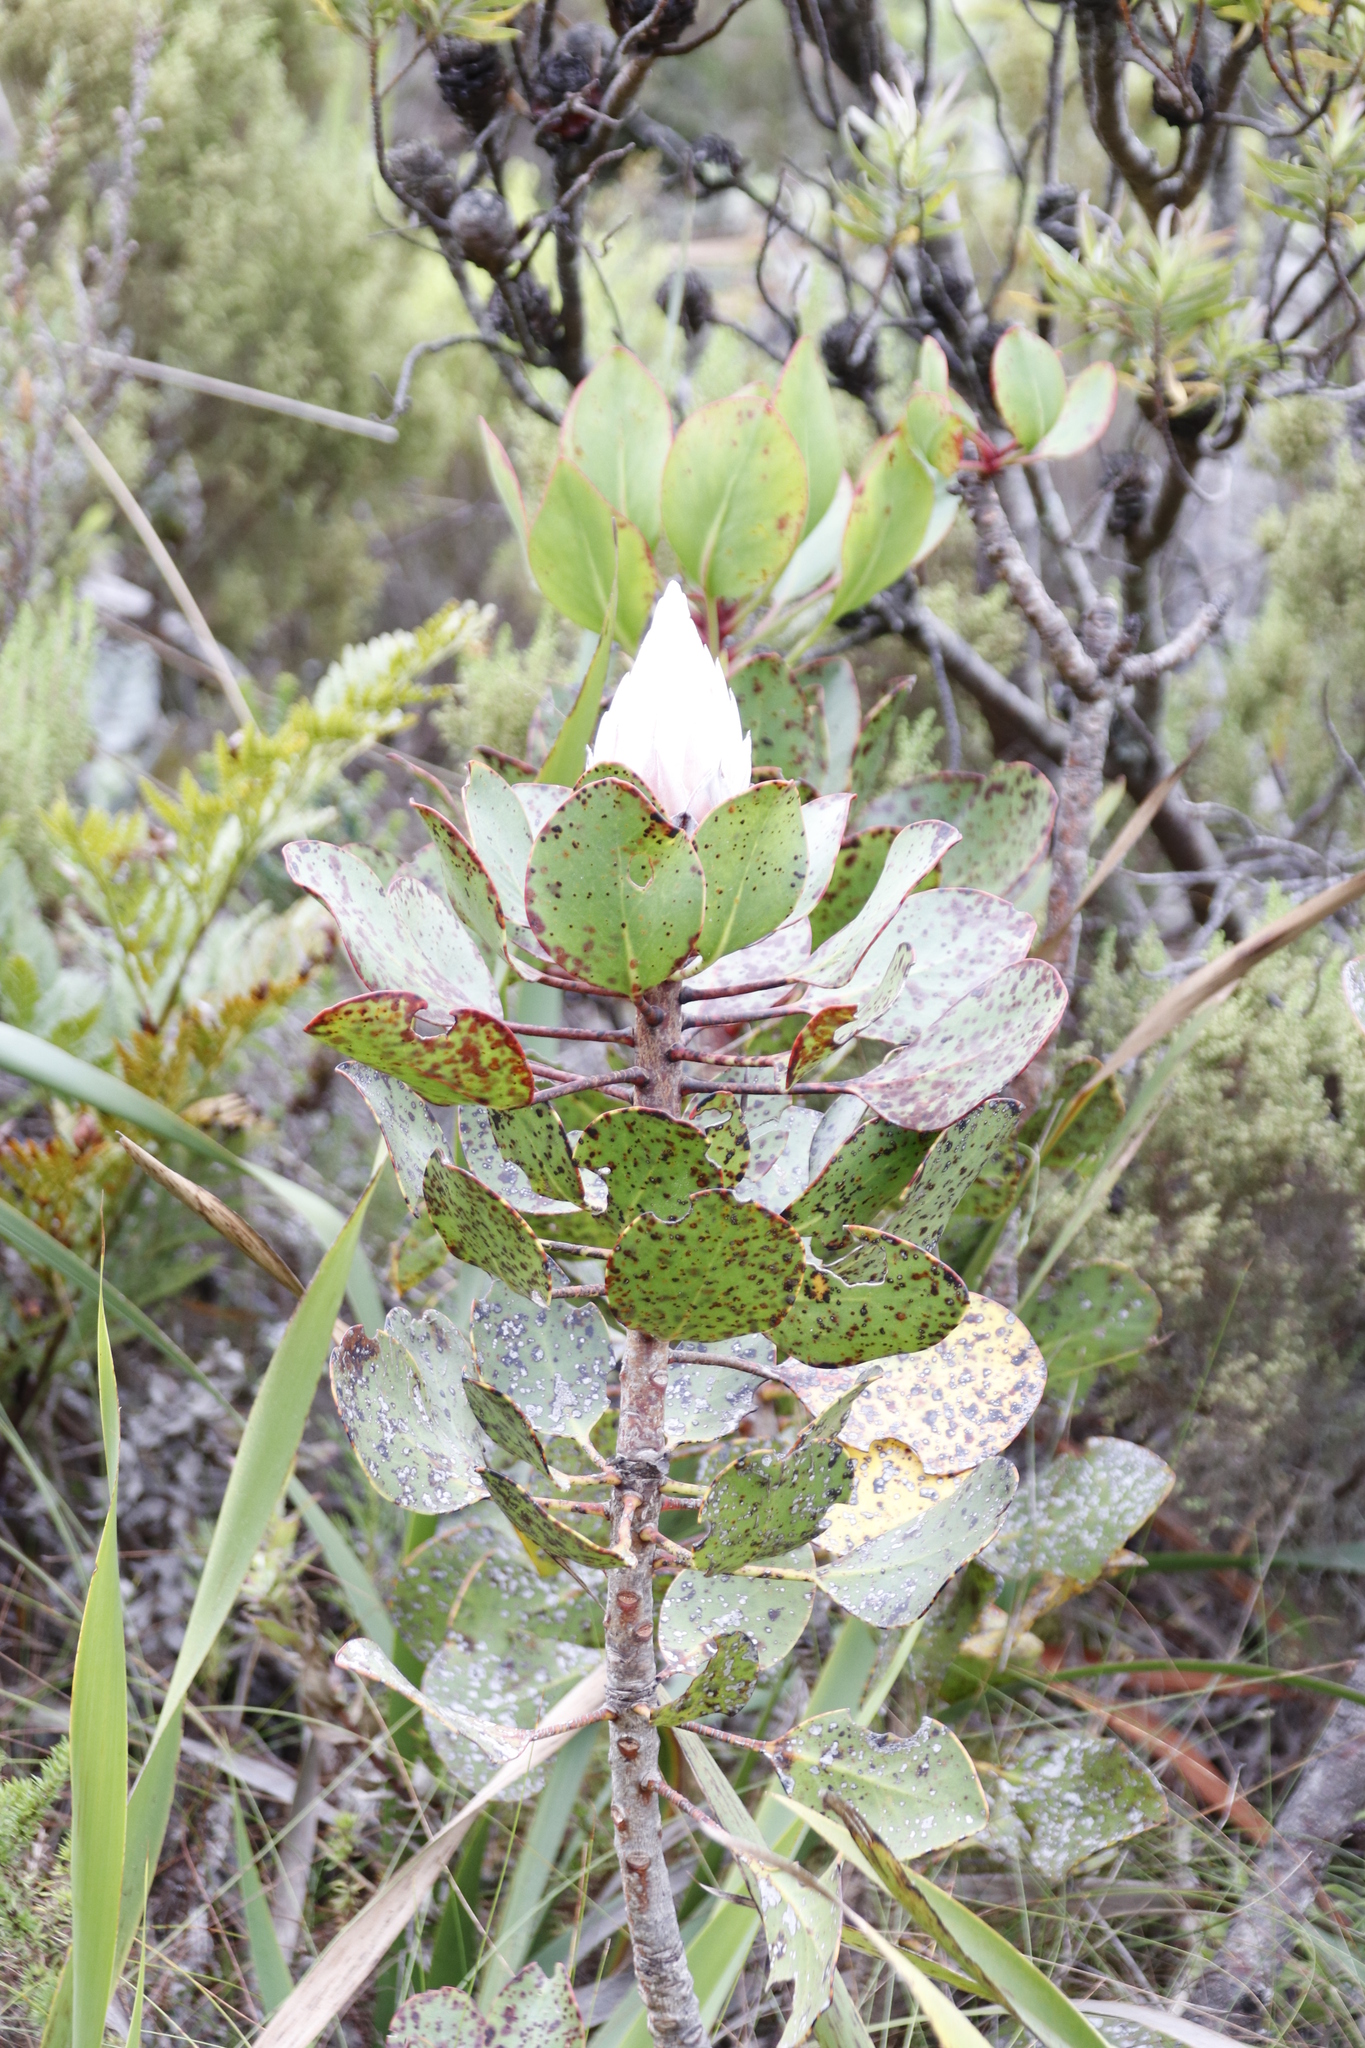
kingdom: Plantae
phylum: Tracheophyta
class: Magnoliopsida
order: Proteales
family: Proteaceae
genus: Protea
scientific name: Protea cynaroides
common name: King protea
